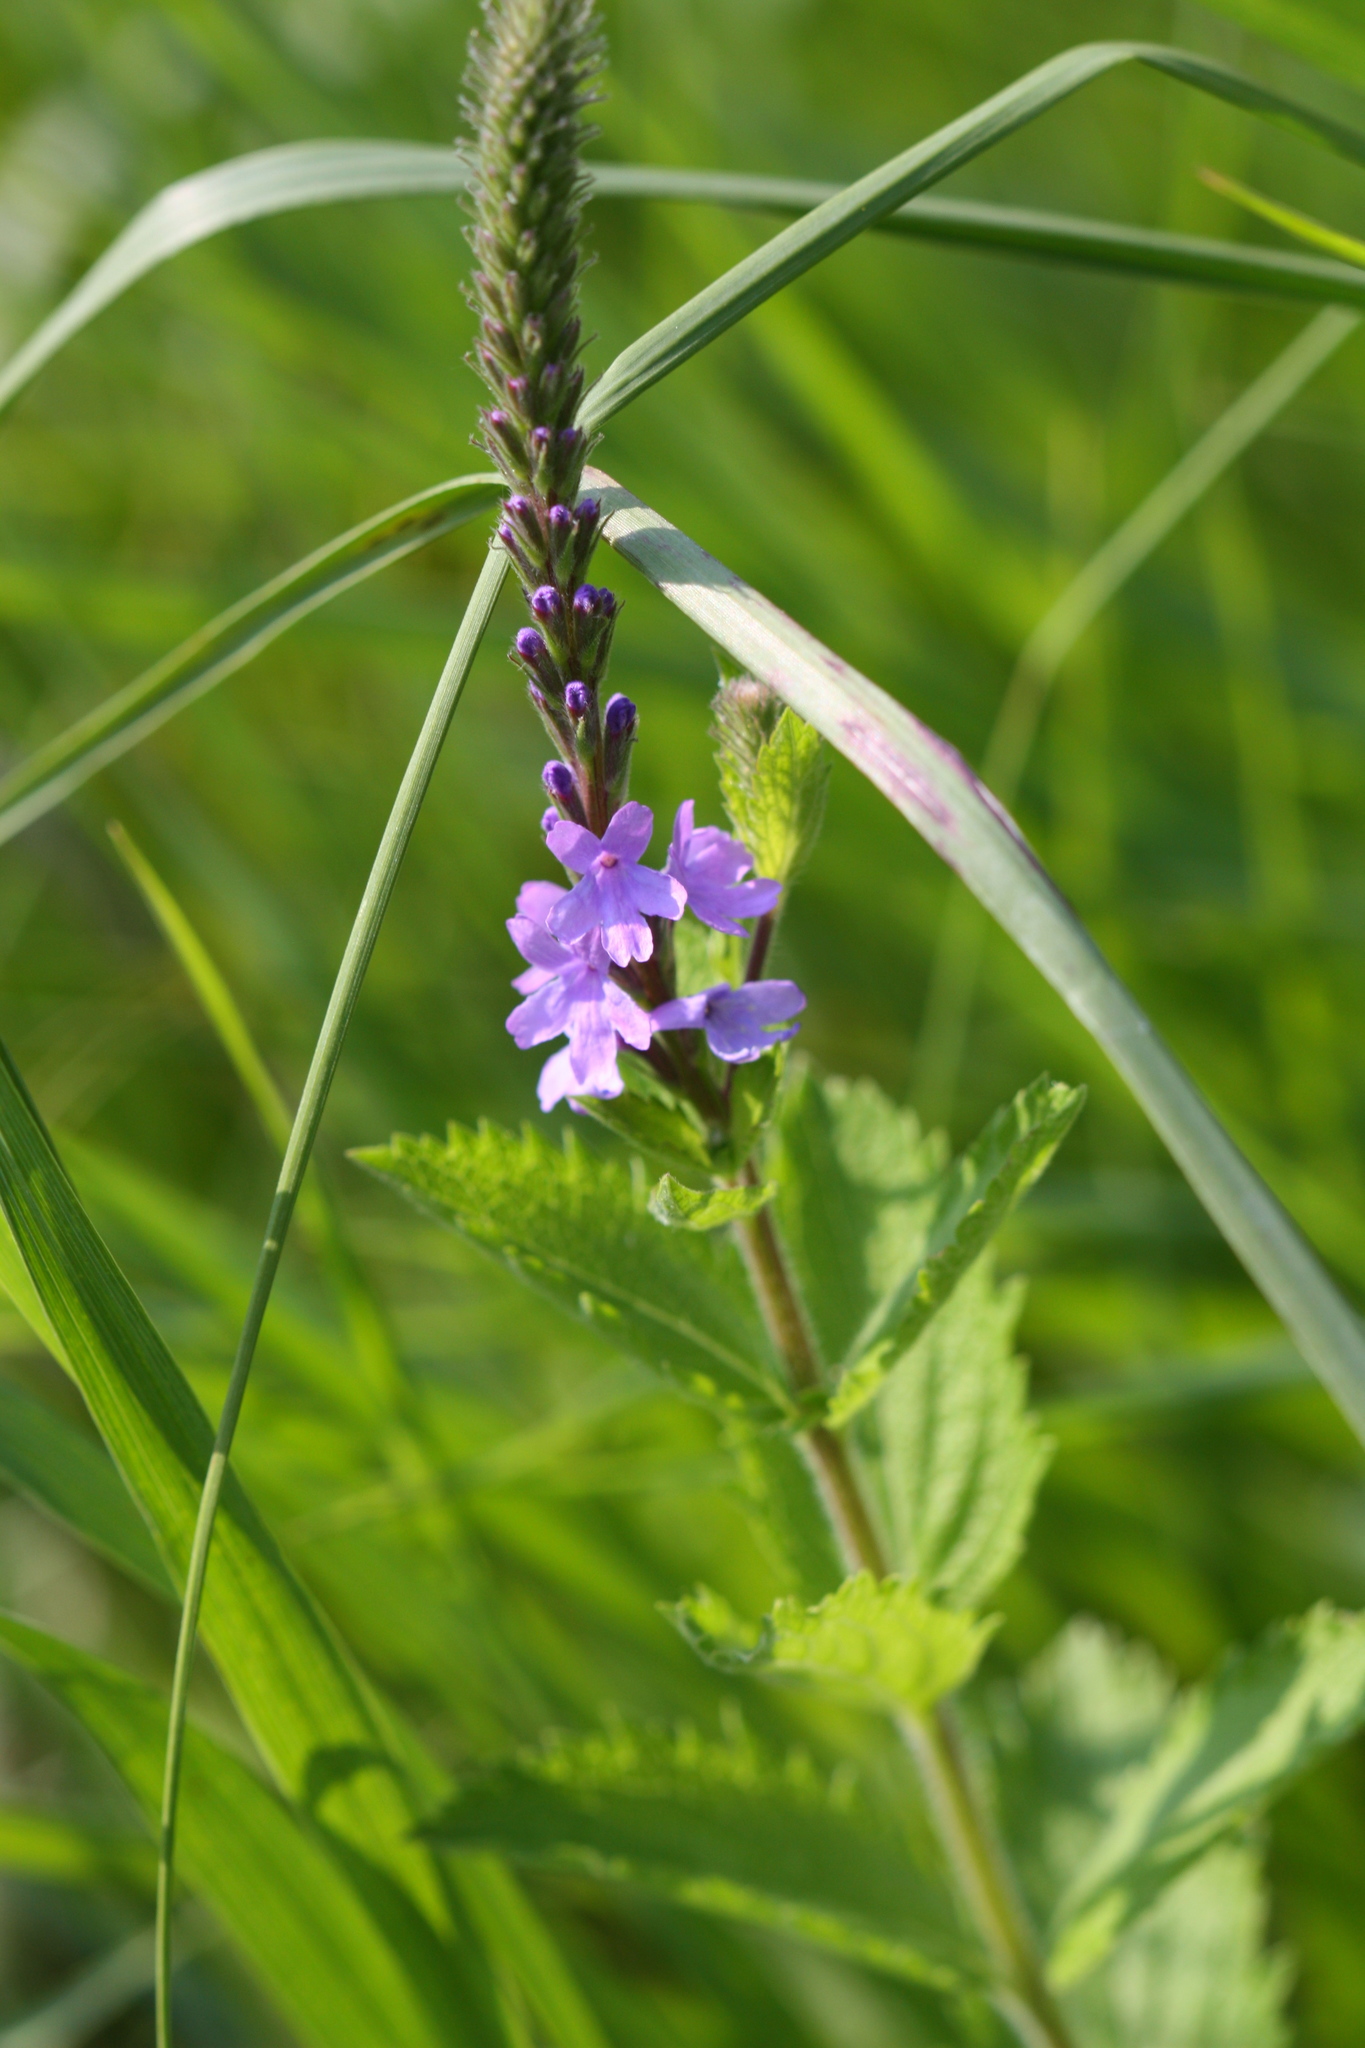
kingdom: Plantae
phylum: Tracheophyta
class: Magnoliopsida
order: Lamiales
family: Verbenaceae
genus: Verbena
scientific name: Verbena stricta
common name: Hoary vervain
